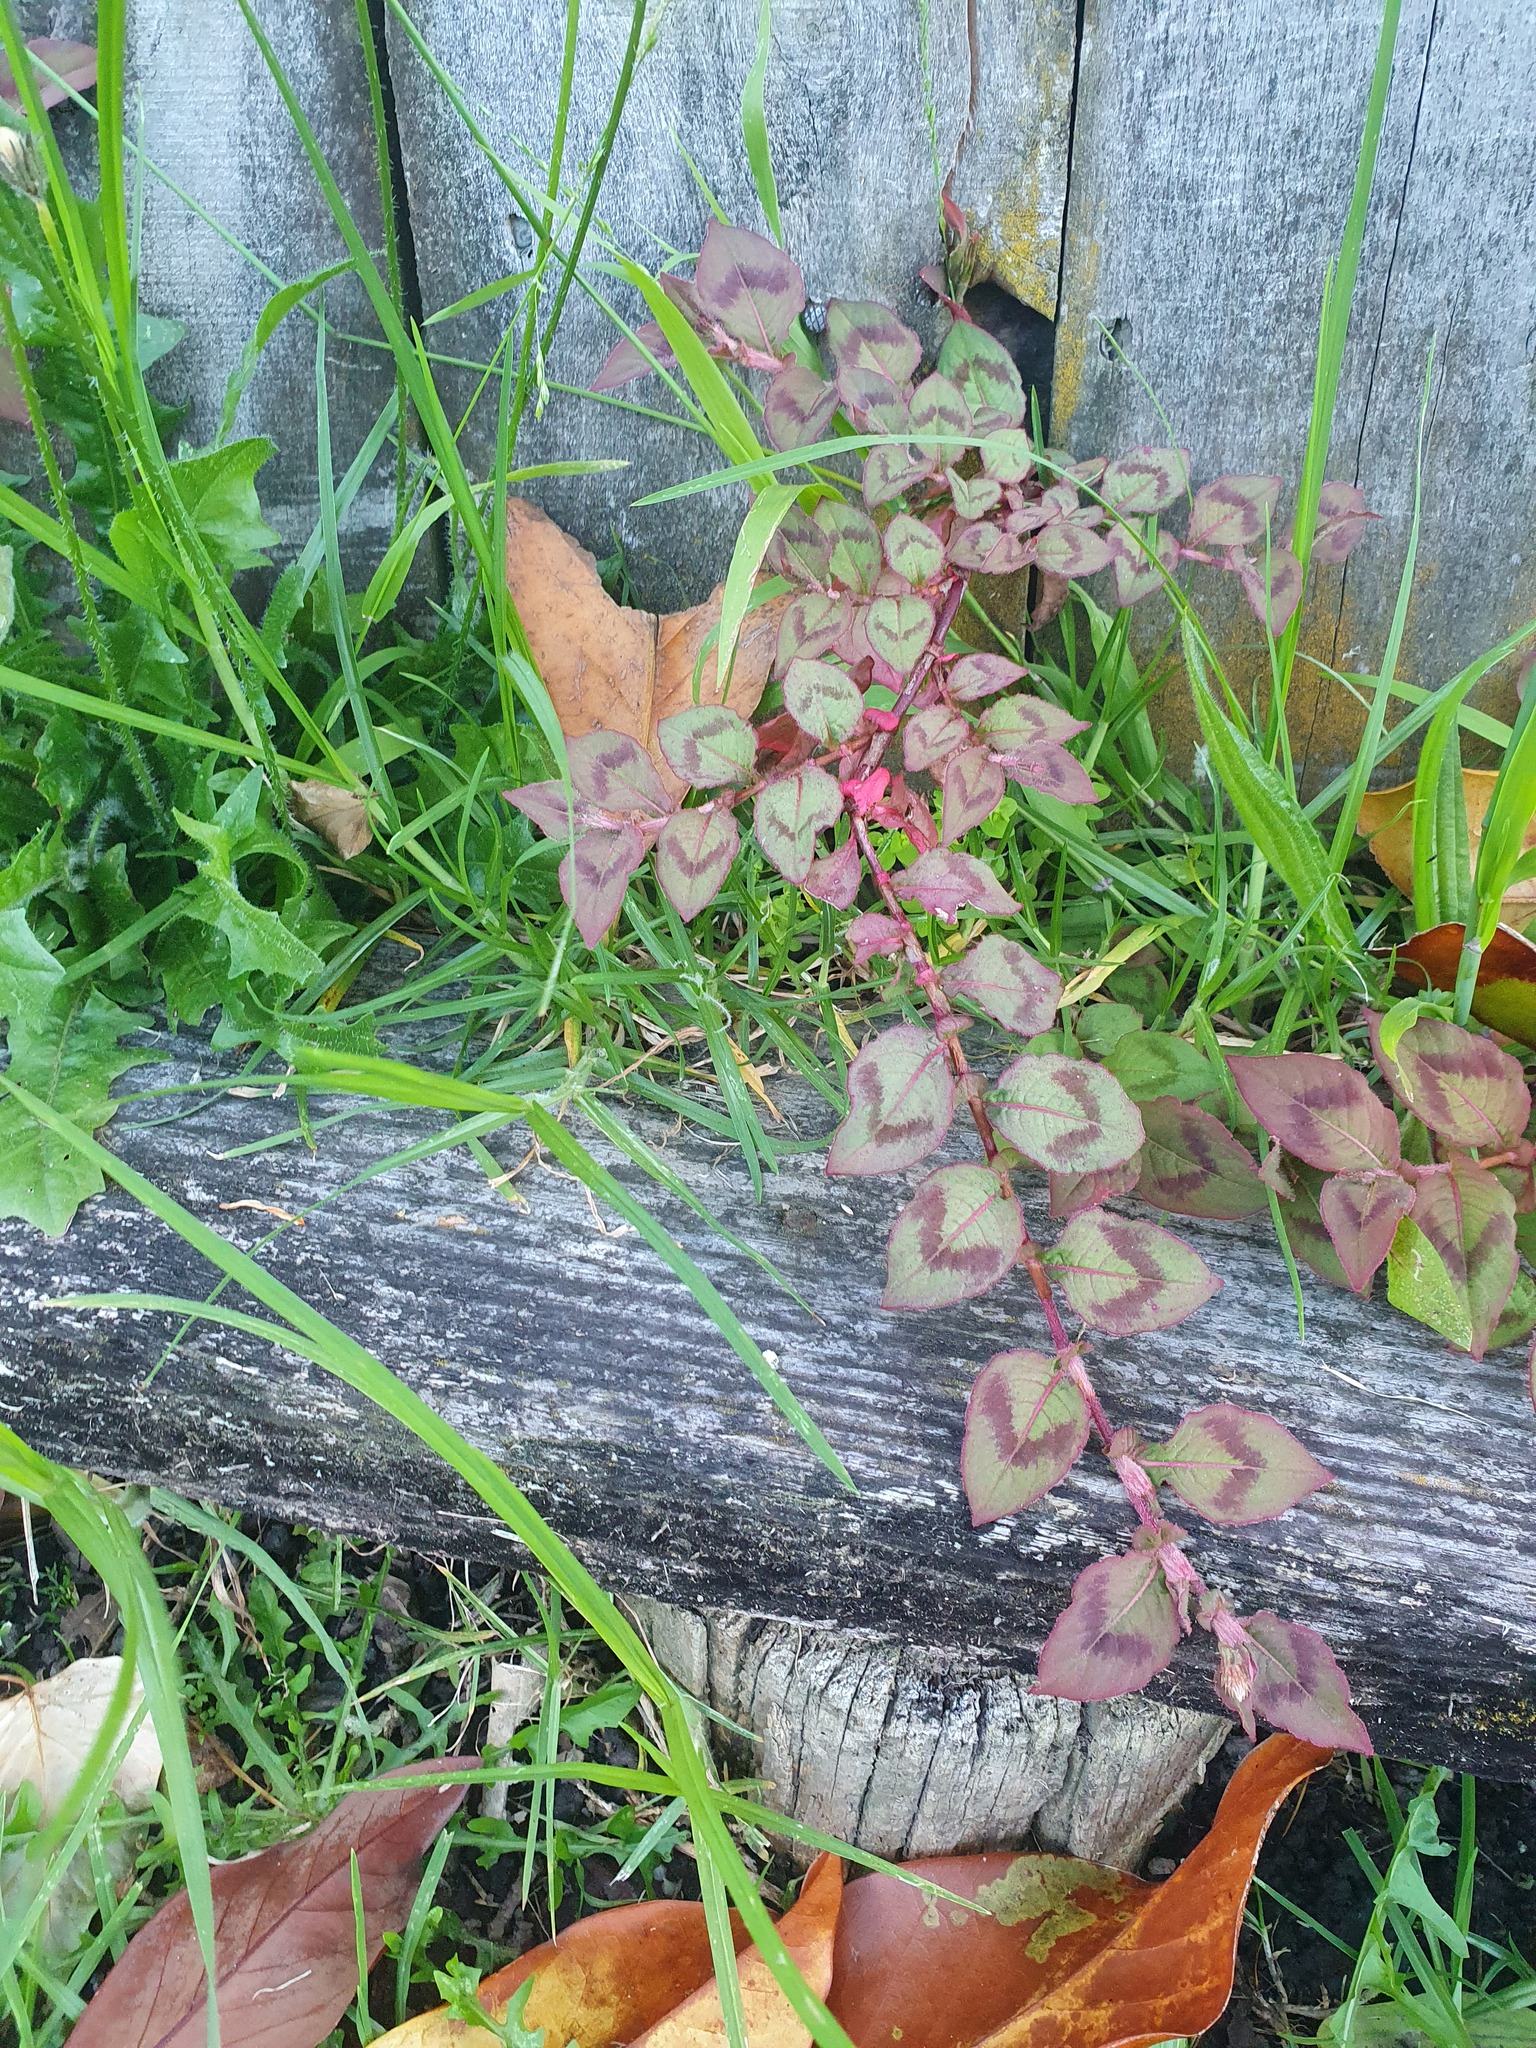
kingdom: Plantae
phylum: Tracheophyta
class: Magnoliopsida
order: Caryophyllales
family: Polygonaceae
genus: Persicaria
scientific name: Persicaria capitata
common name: Pinkhead smartweed
